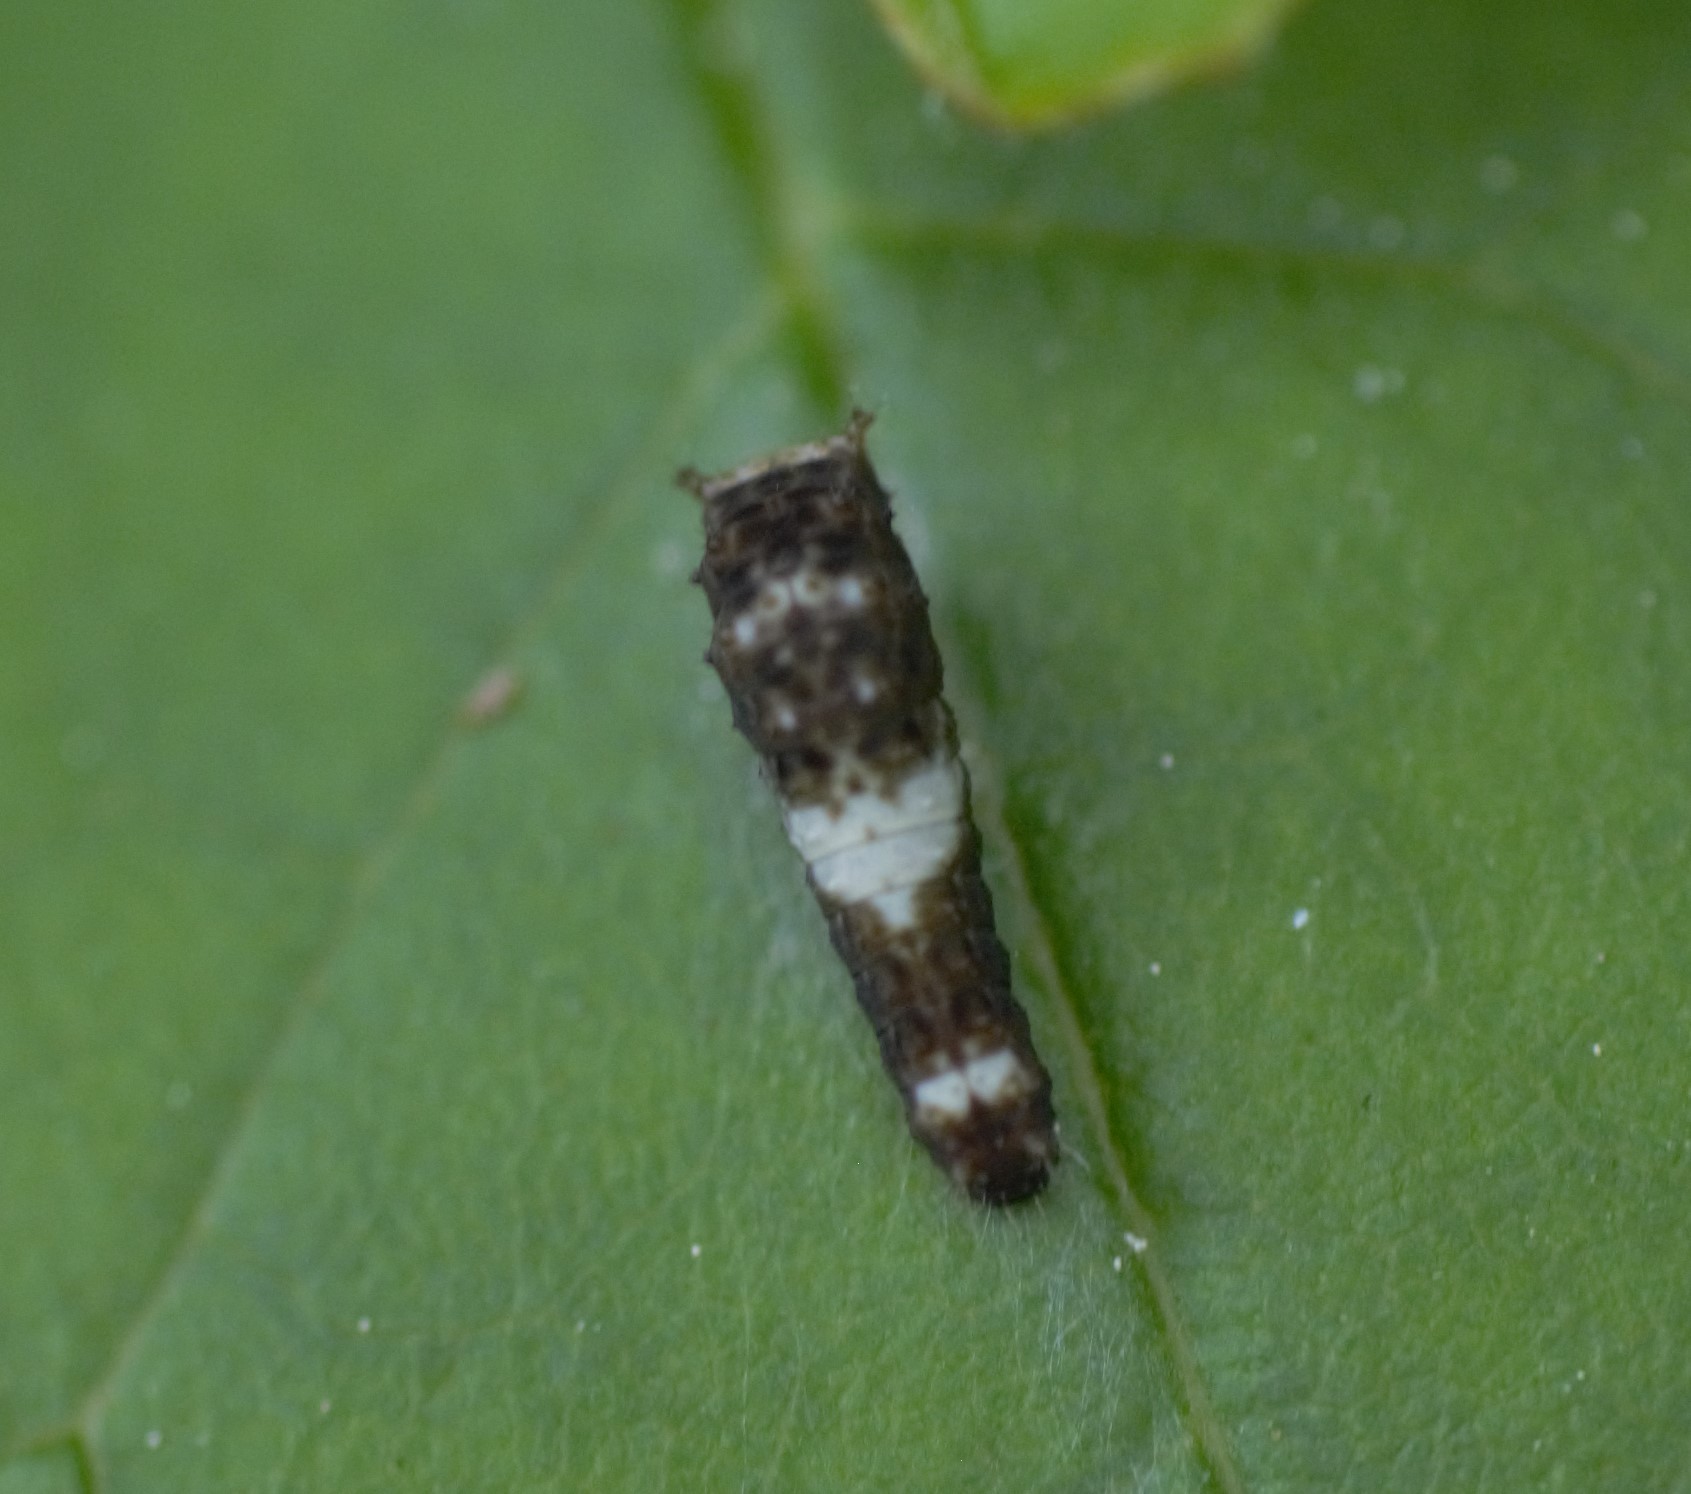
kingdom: Animalia
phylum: Arthropoda
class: Insecta
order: Lepidoptera
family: Papilionidae
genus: Papilio
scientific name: Papilio canadensis
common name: Canadian tiger swallowtail
